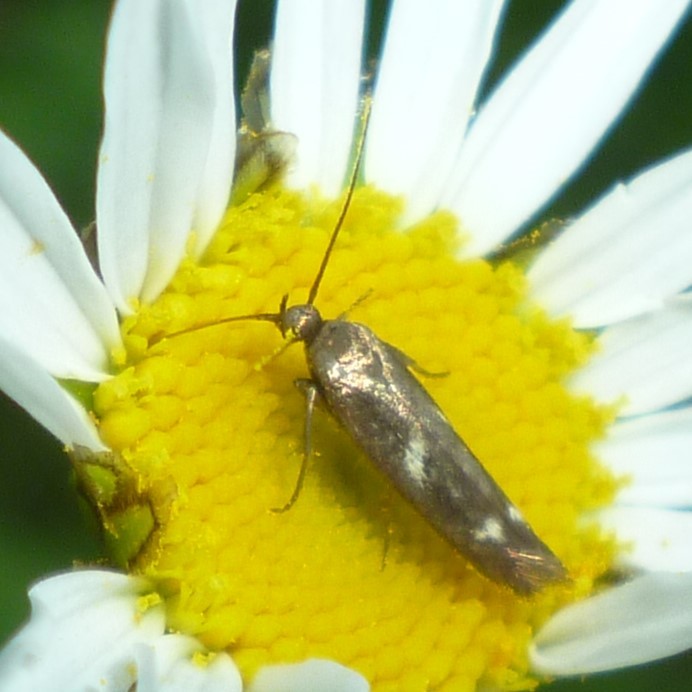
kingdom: Animalia
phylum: Arthropoda
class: Insecta
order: Lepidoptera
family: Scythrididae
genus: Landryia
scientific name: Landryia impositella
